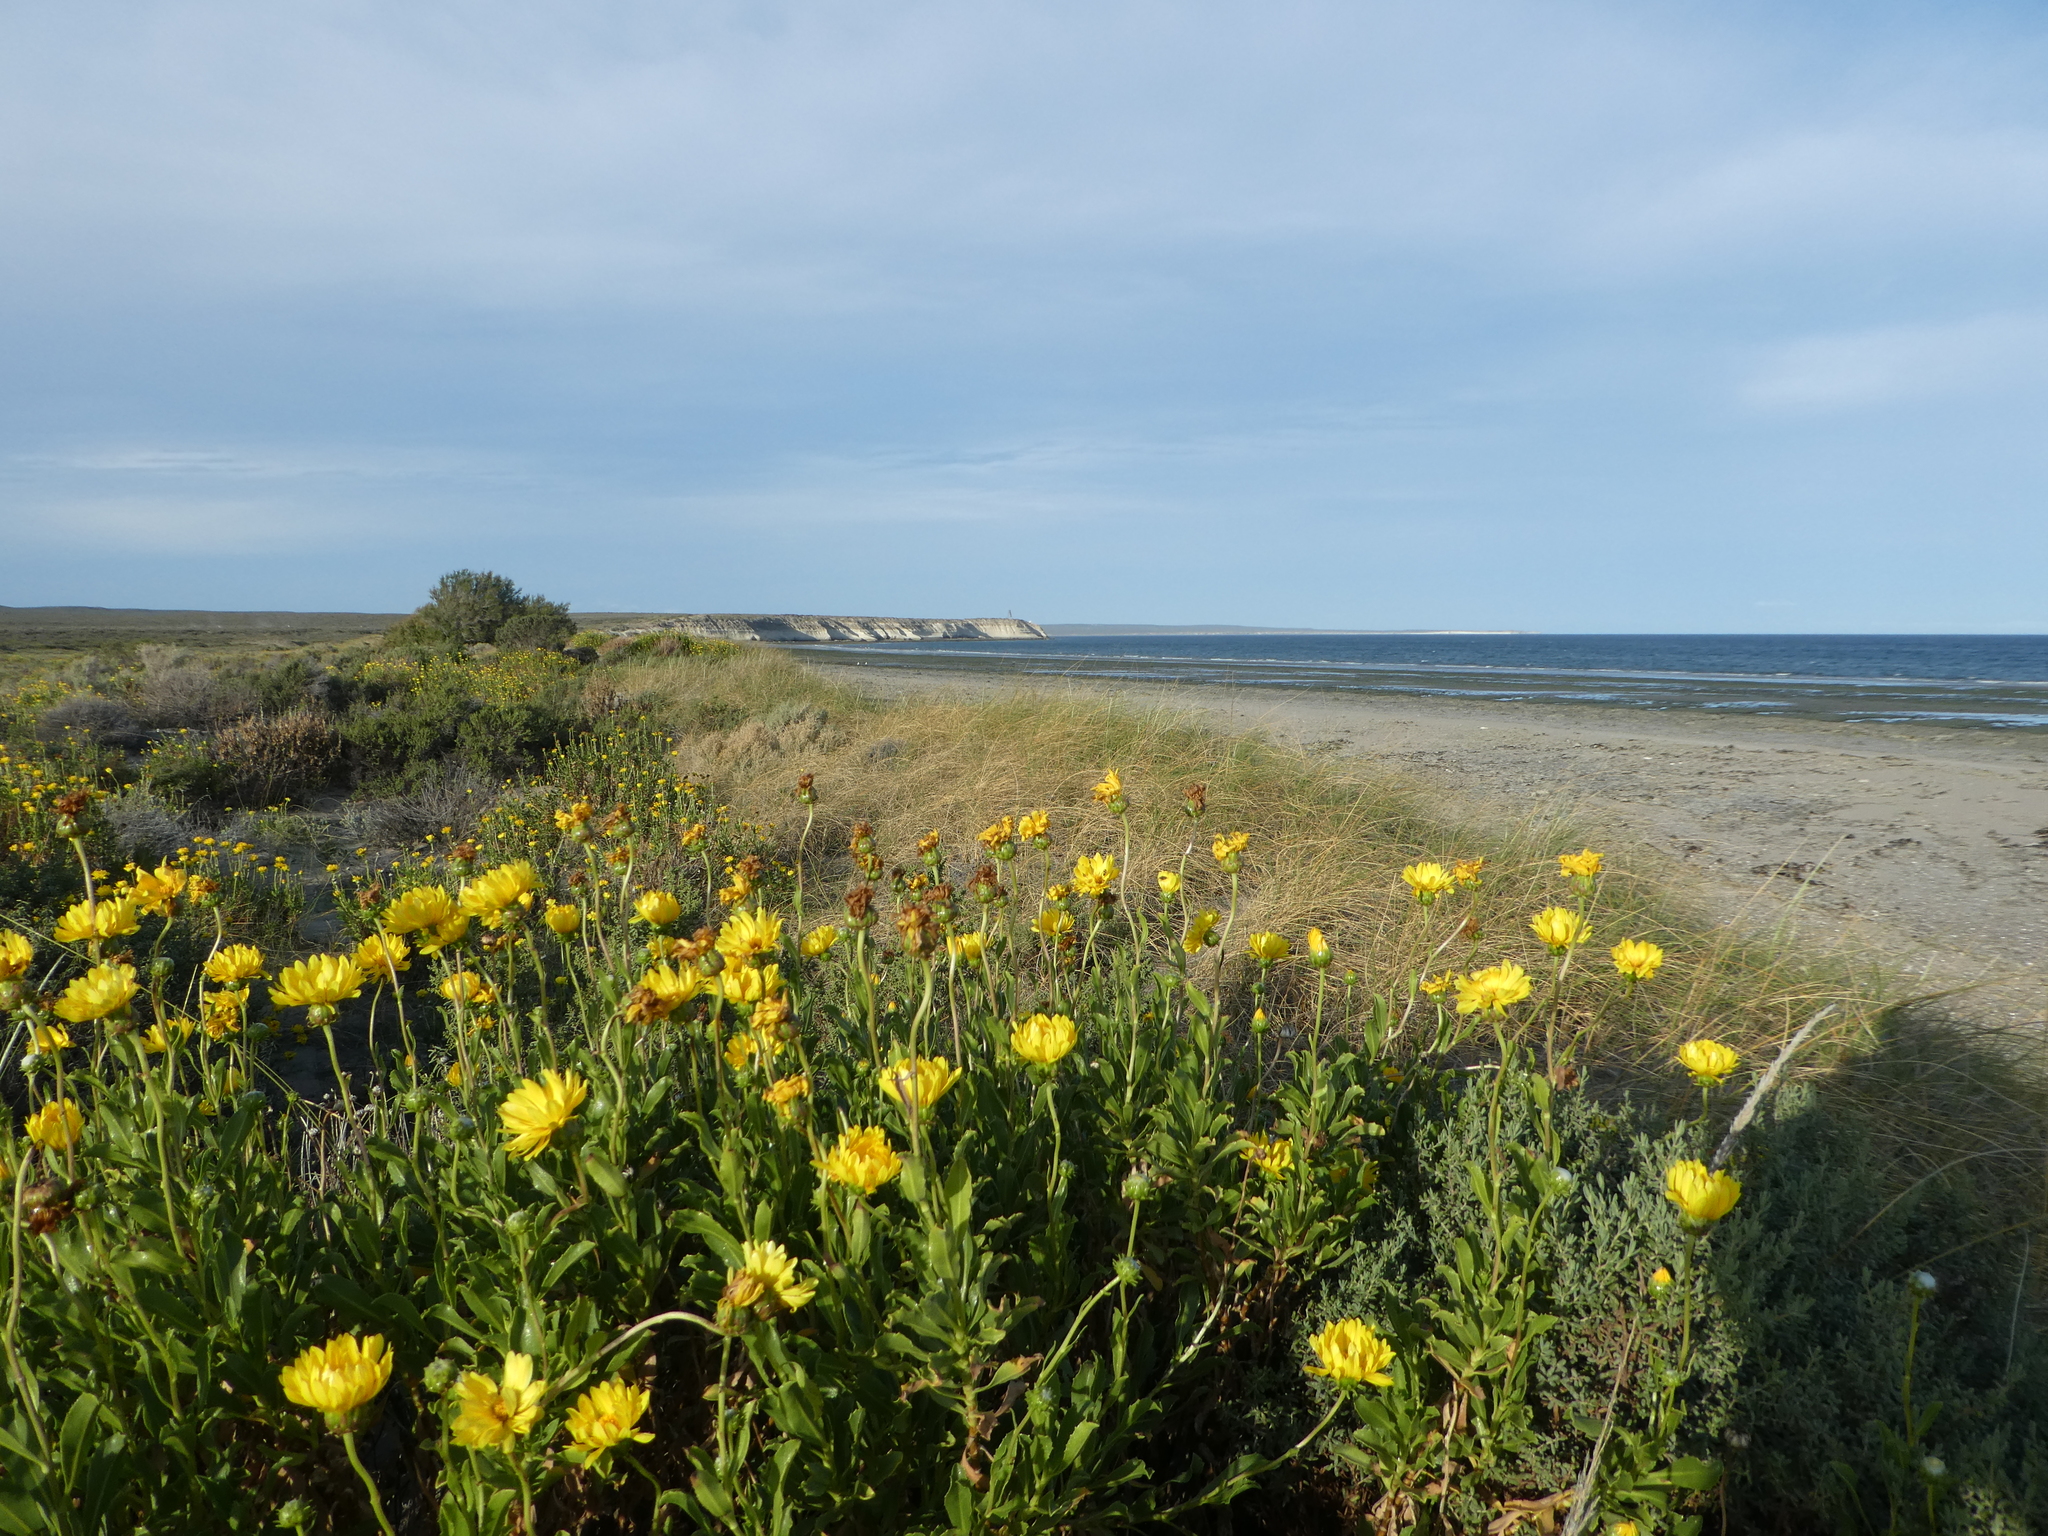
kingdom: Plantae
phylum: Tracheophyta
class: Magnoliopsida
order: Asterales
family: Asteraceae
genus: Grindelia
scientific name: Grindelia chiloensis
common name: Shrubby gumweed
